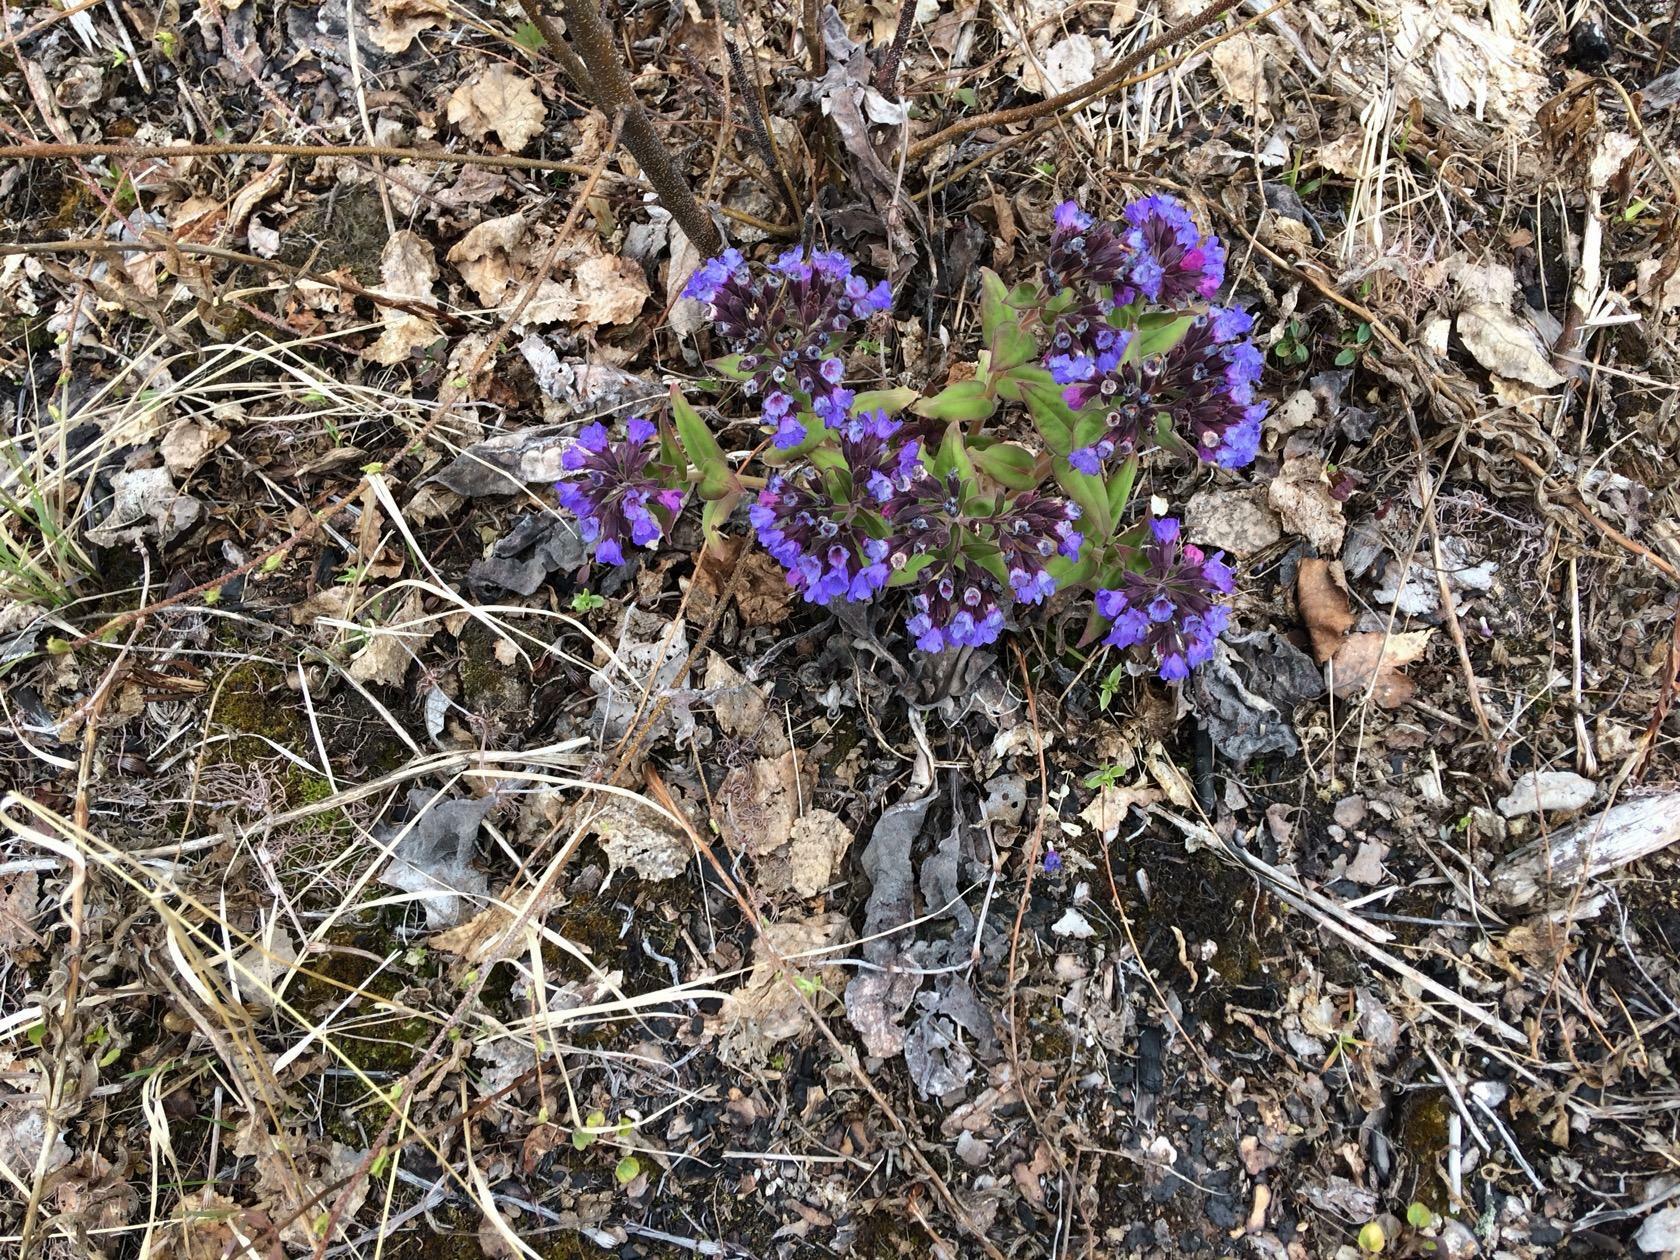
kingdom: Plantae
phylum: Tracheophyta
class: Magnoliopsida
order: Boraginales
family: Boraginaceae
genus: Pulmonaria
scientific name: Pulmonaria mollis
